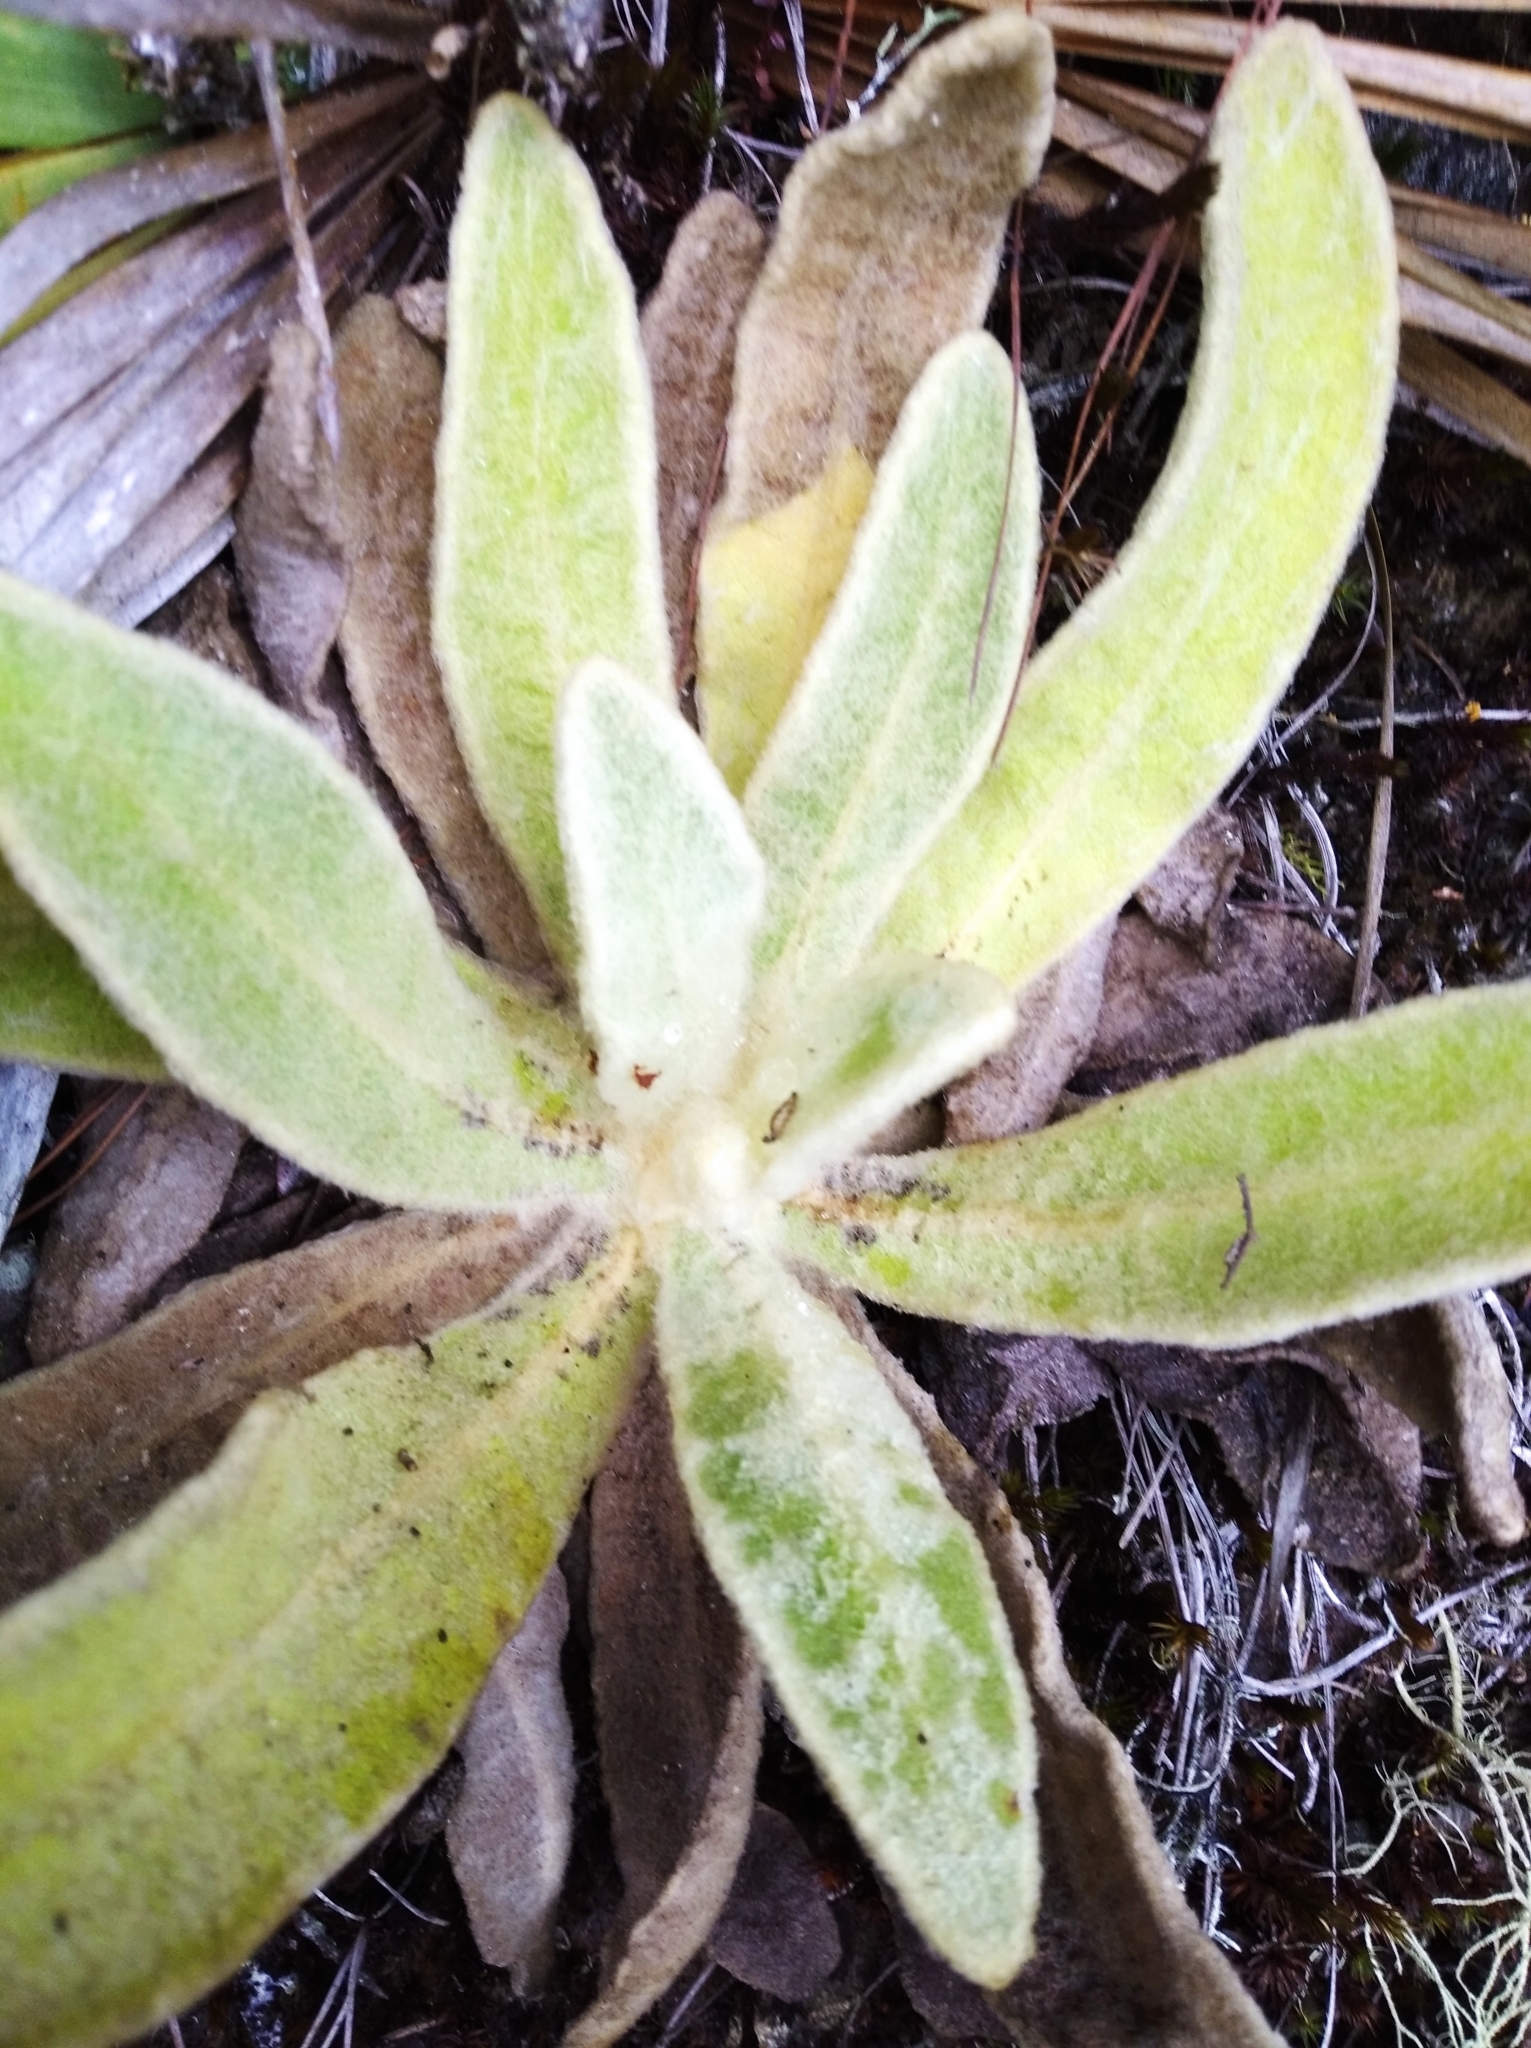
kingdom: Plantae
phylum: Tracheophyta
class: Magnoliopsida
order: Asterales
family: Asteraceae
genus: Espeletia
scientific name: Espeletia aristeguietana
